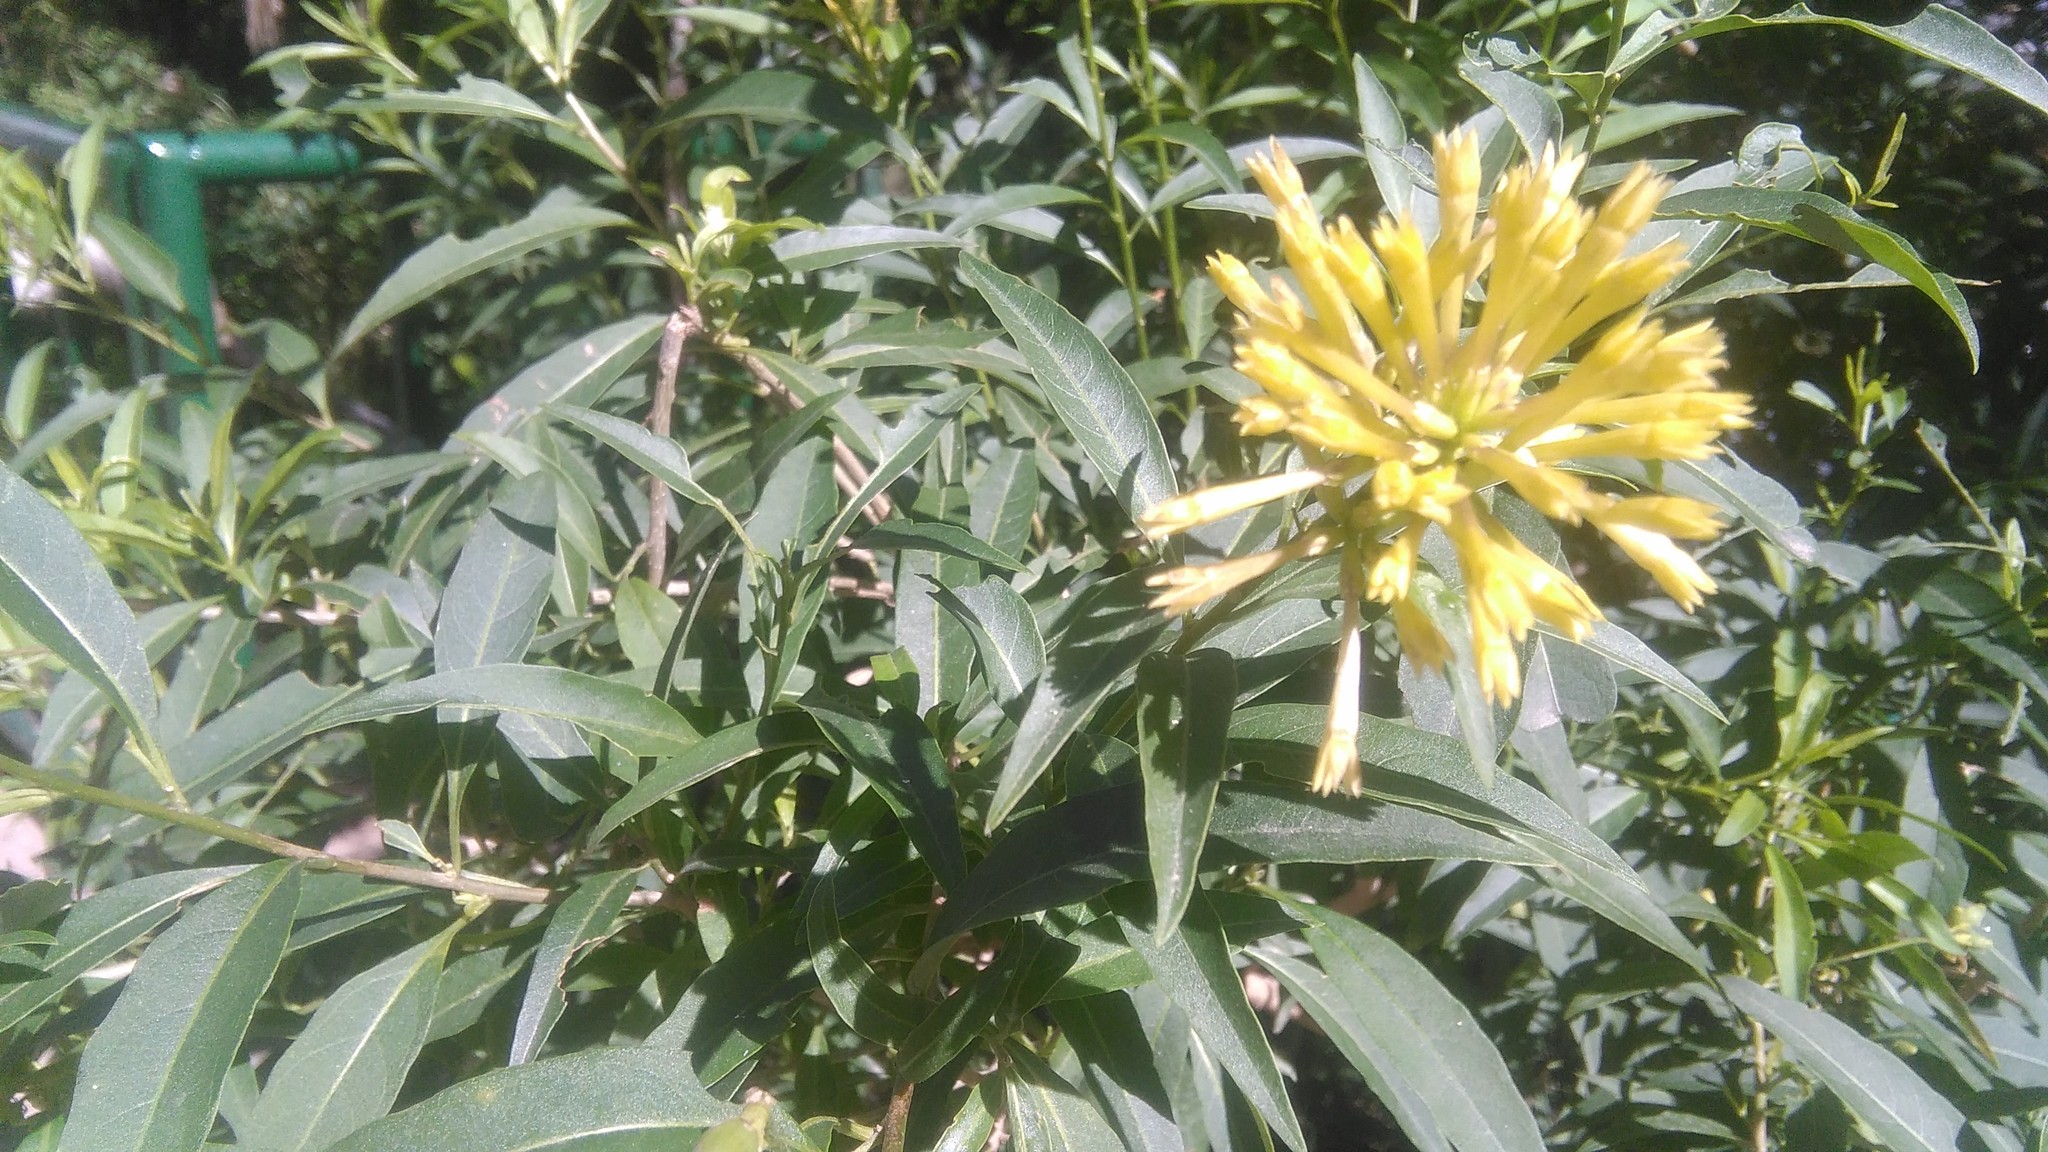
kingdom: Plantae
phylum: Tracheophyta
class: Magnoliopsida
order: Solanales
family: Solanaceae
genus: Cestrum
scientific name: Cestrum parqui
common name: Chilean cestrum
